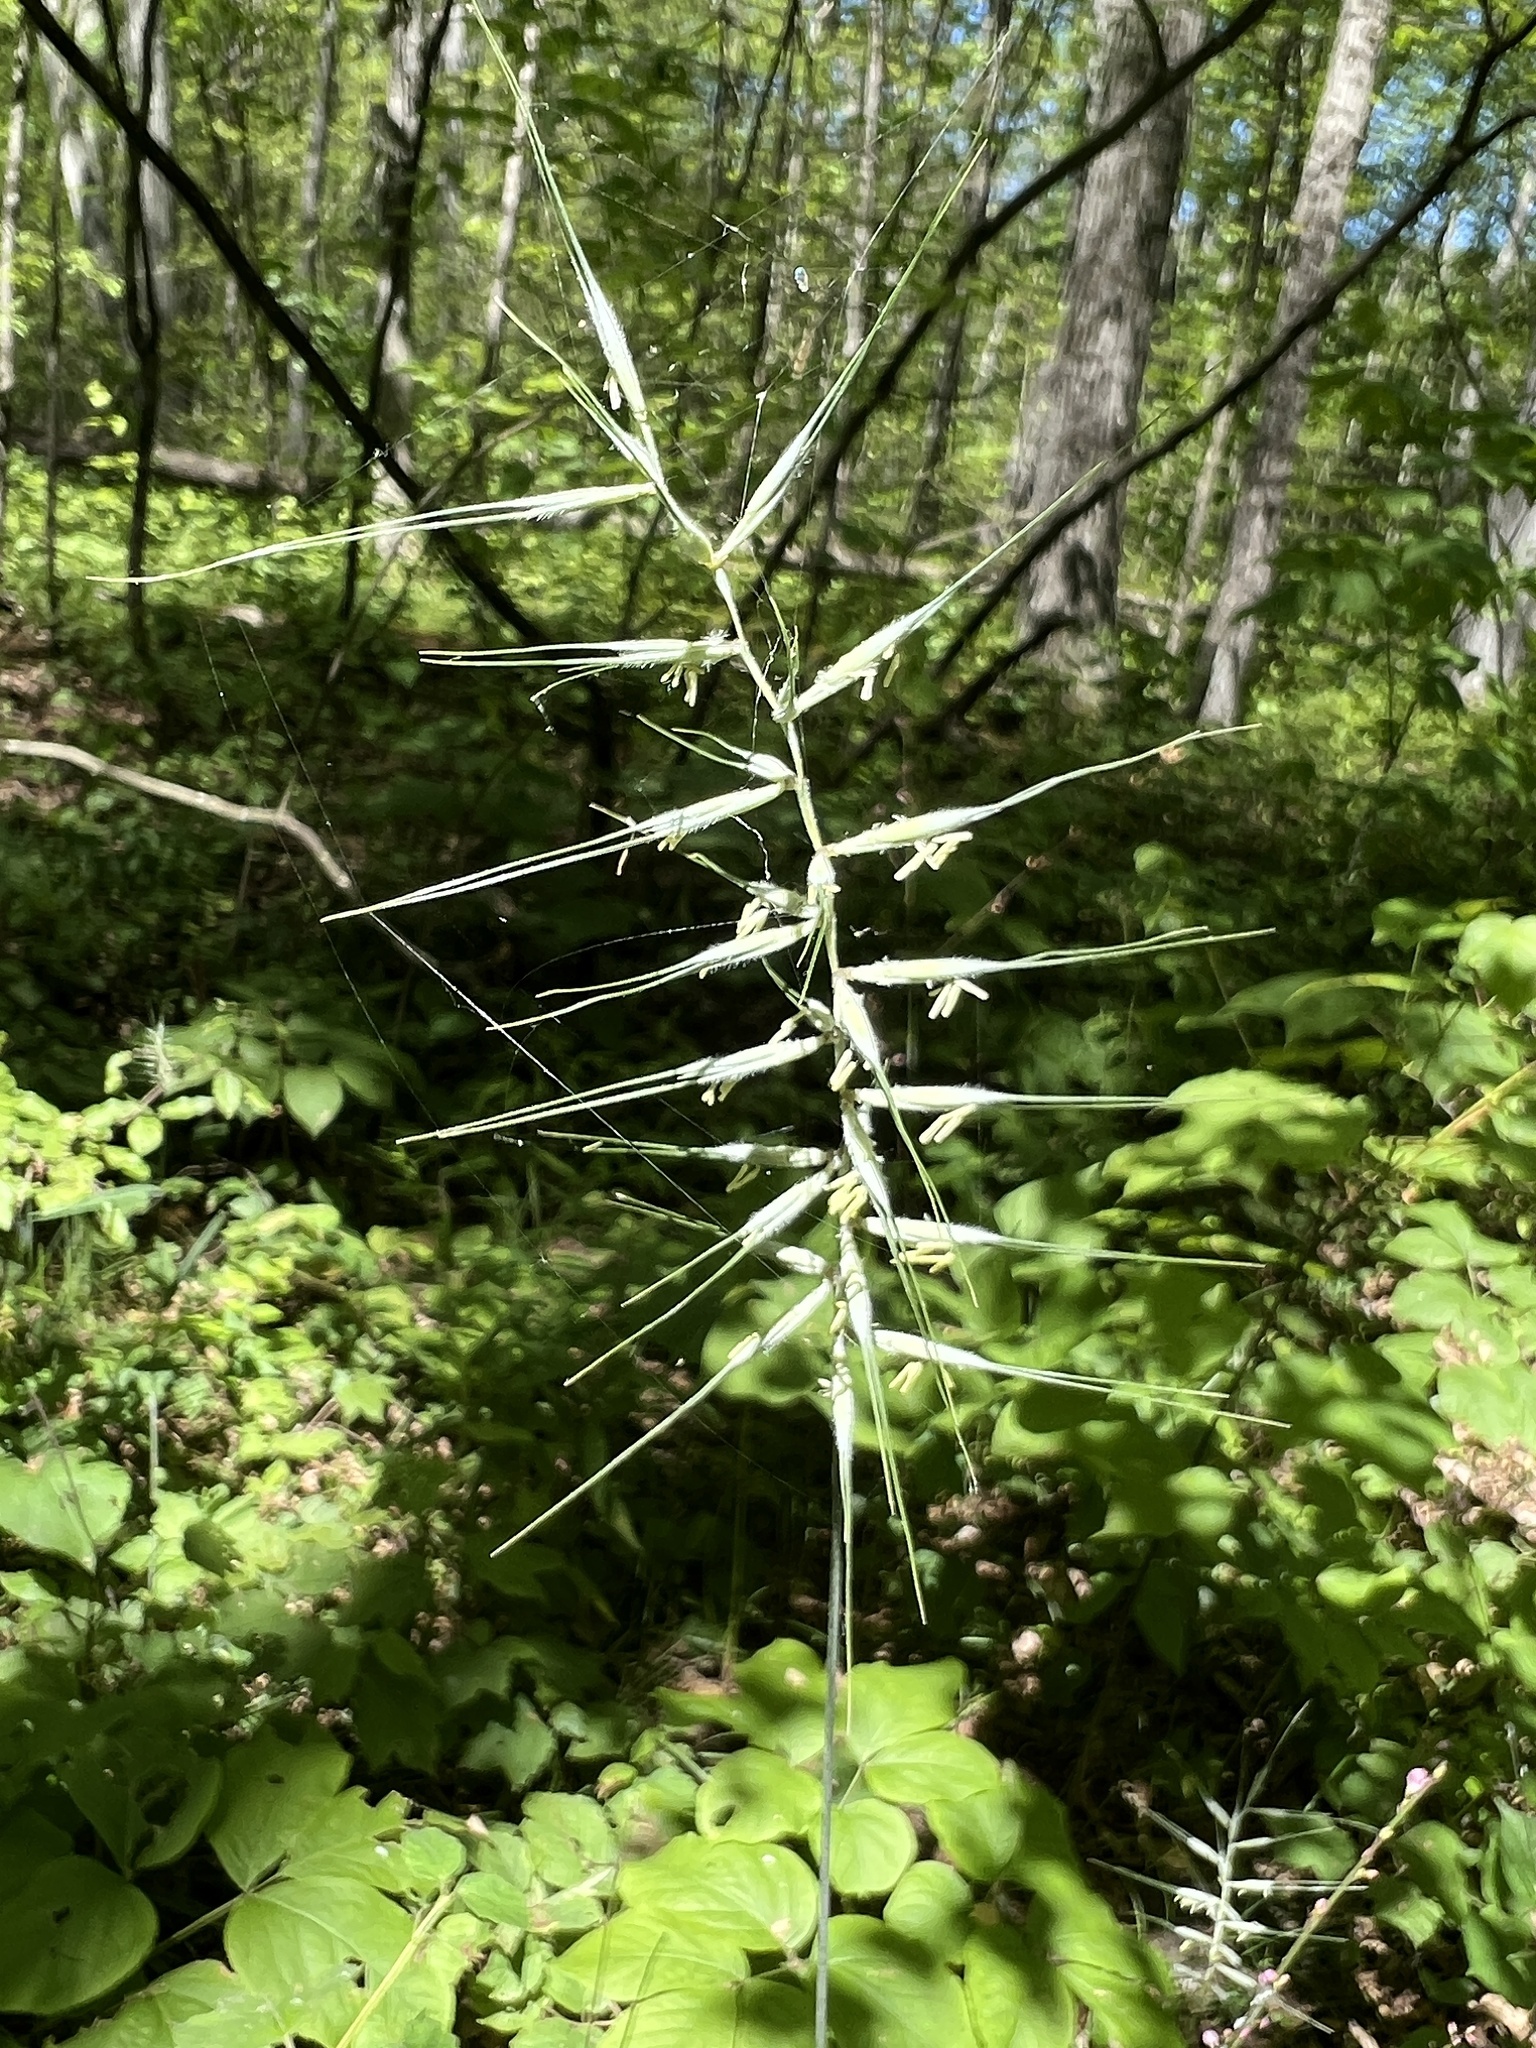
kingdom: Plantae
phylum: Tracheophyta
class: Liliopsida
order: Poales
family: Poaceae
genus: Elymus
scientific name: Elymus hystrix
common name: Bottlebrush grass
